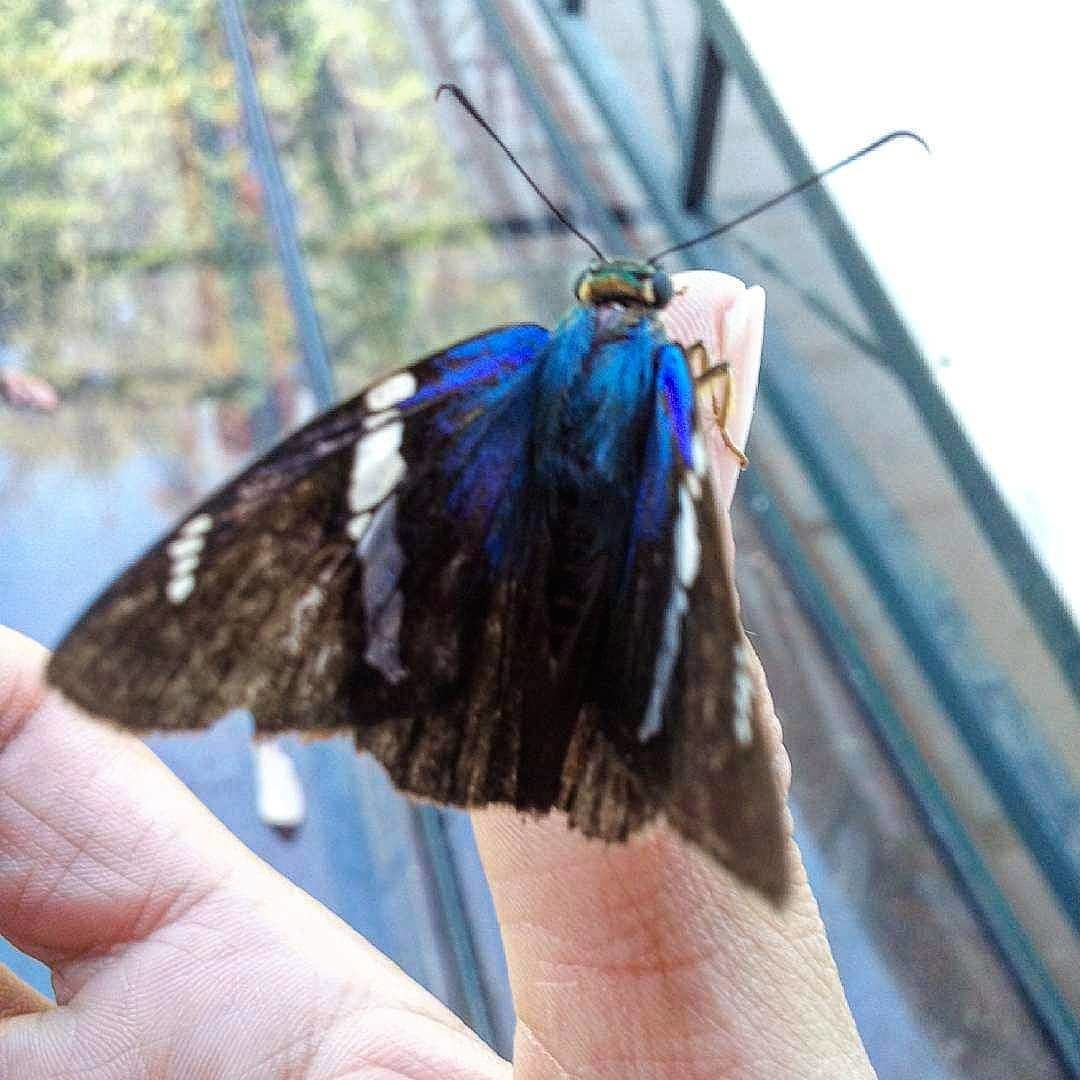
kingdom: Animalia
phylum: Arthropoda
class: Insecta
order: Lepidoptera
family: Hesperiidae
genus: Astraptes
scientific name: Astraptes fulgerator
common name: Two-barred flasher
